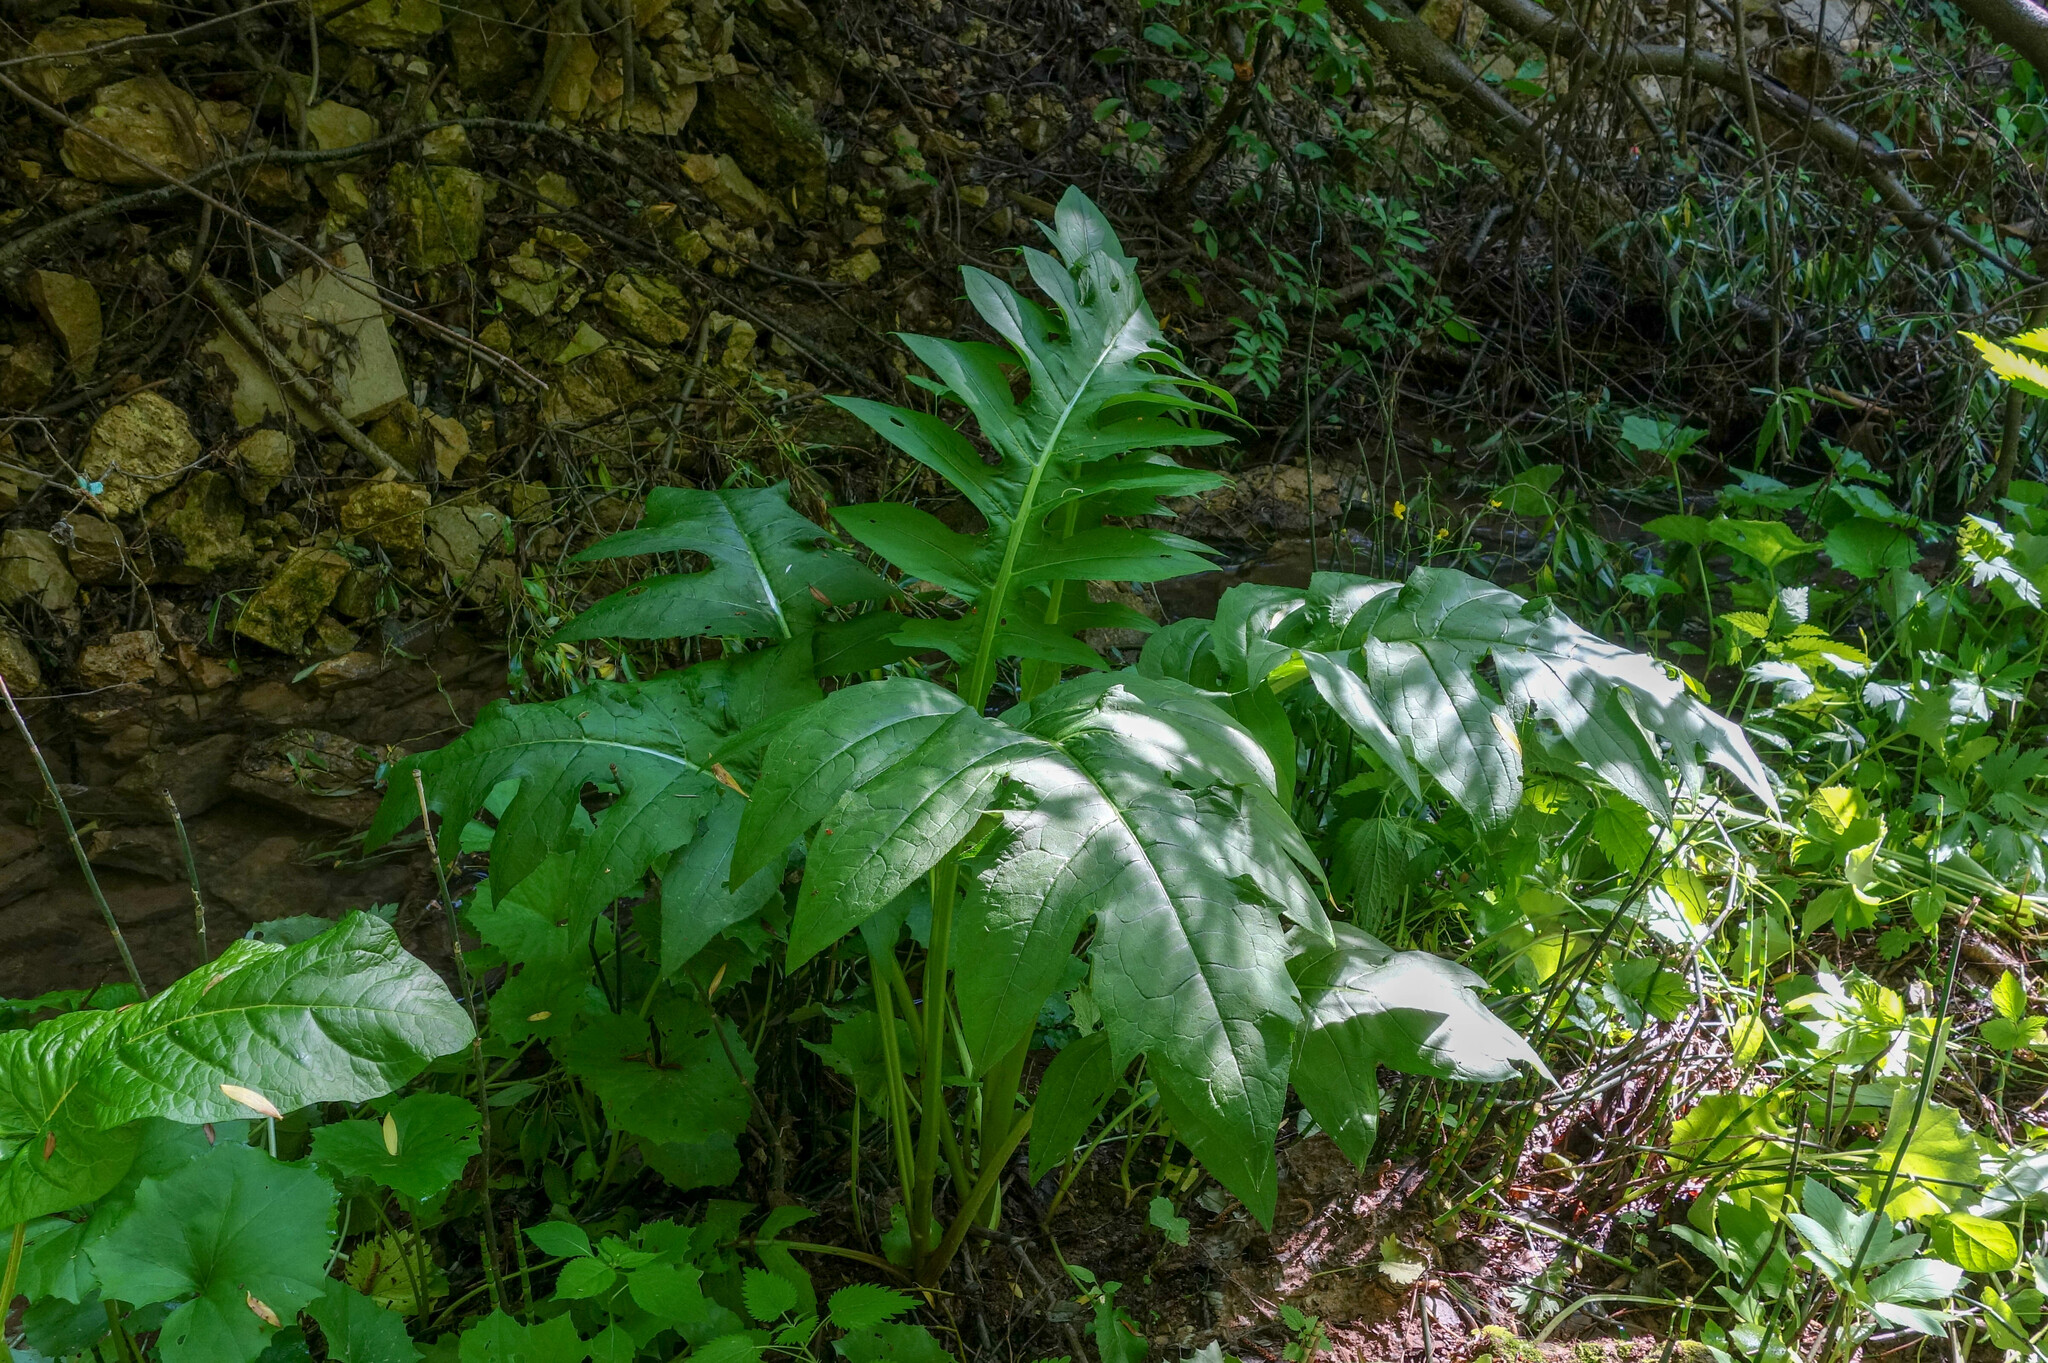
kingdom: Plantae
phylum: Tracheophyta
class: Magnoliopsida
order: Asterales
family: Asteraceae
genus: Cirsium
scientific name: Cirsium oleraceum
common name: Cabbage thistle
